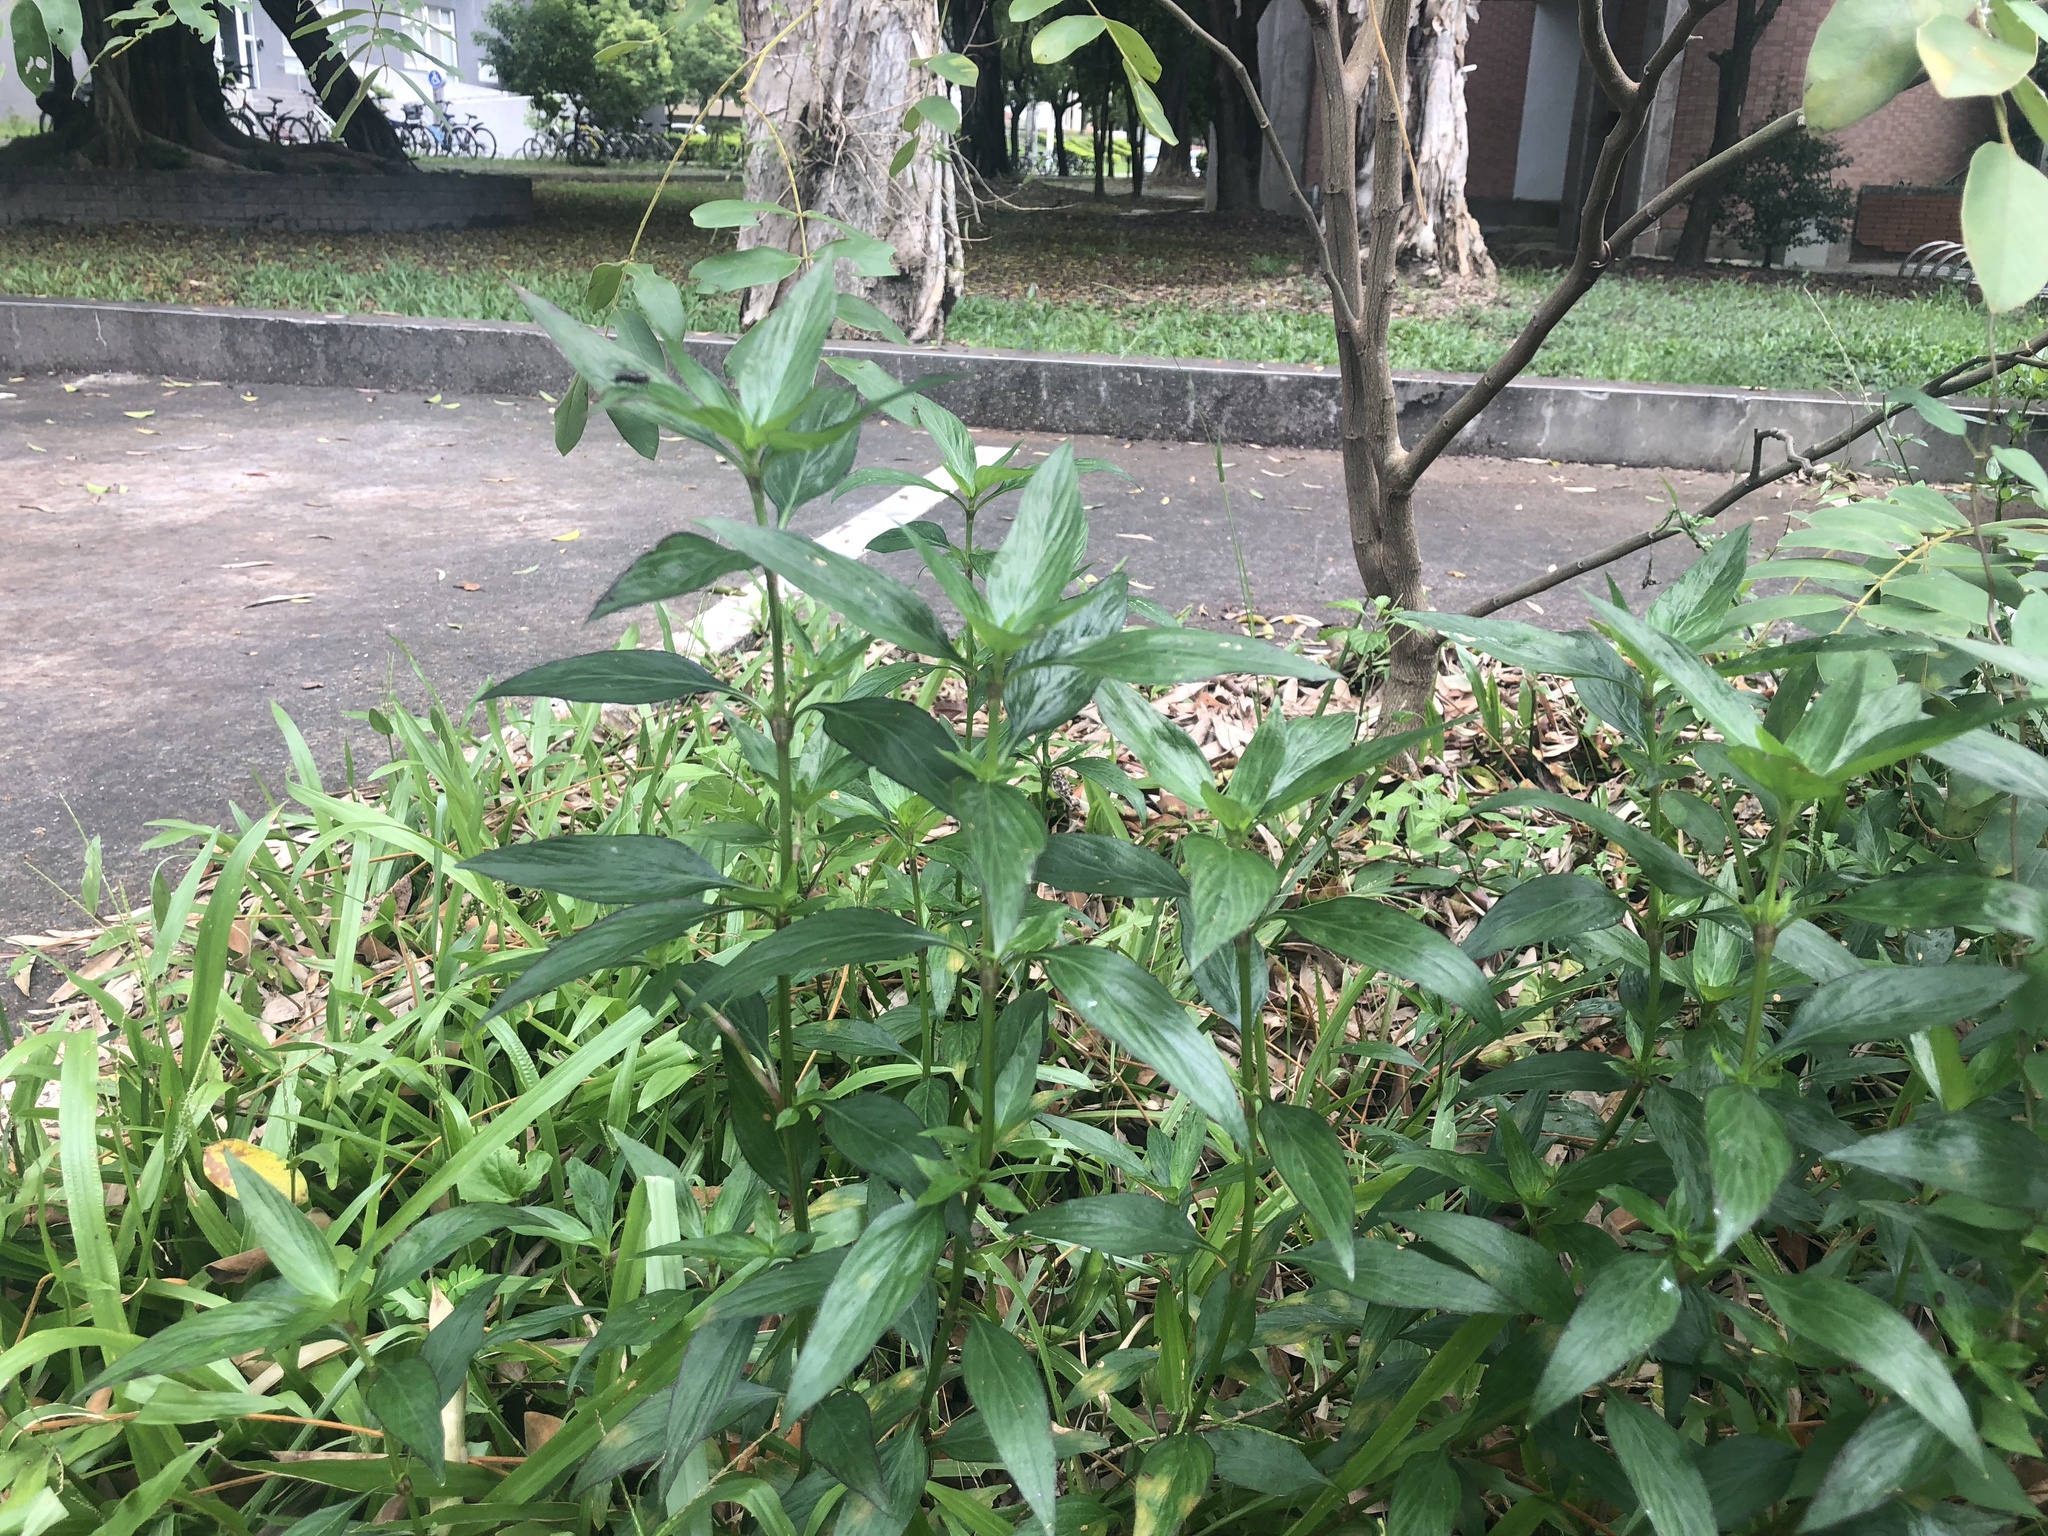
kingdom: Plantae
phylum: Tracheophyta
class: Magnoliopsida
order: Gentianales
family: Rubiaceae
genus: Dimetia
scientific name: Dimetia hedyotidea
